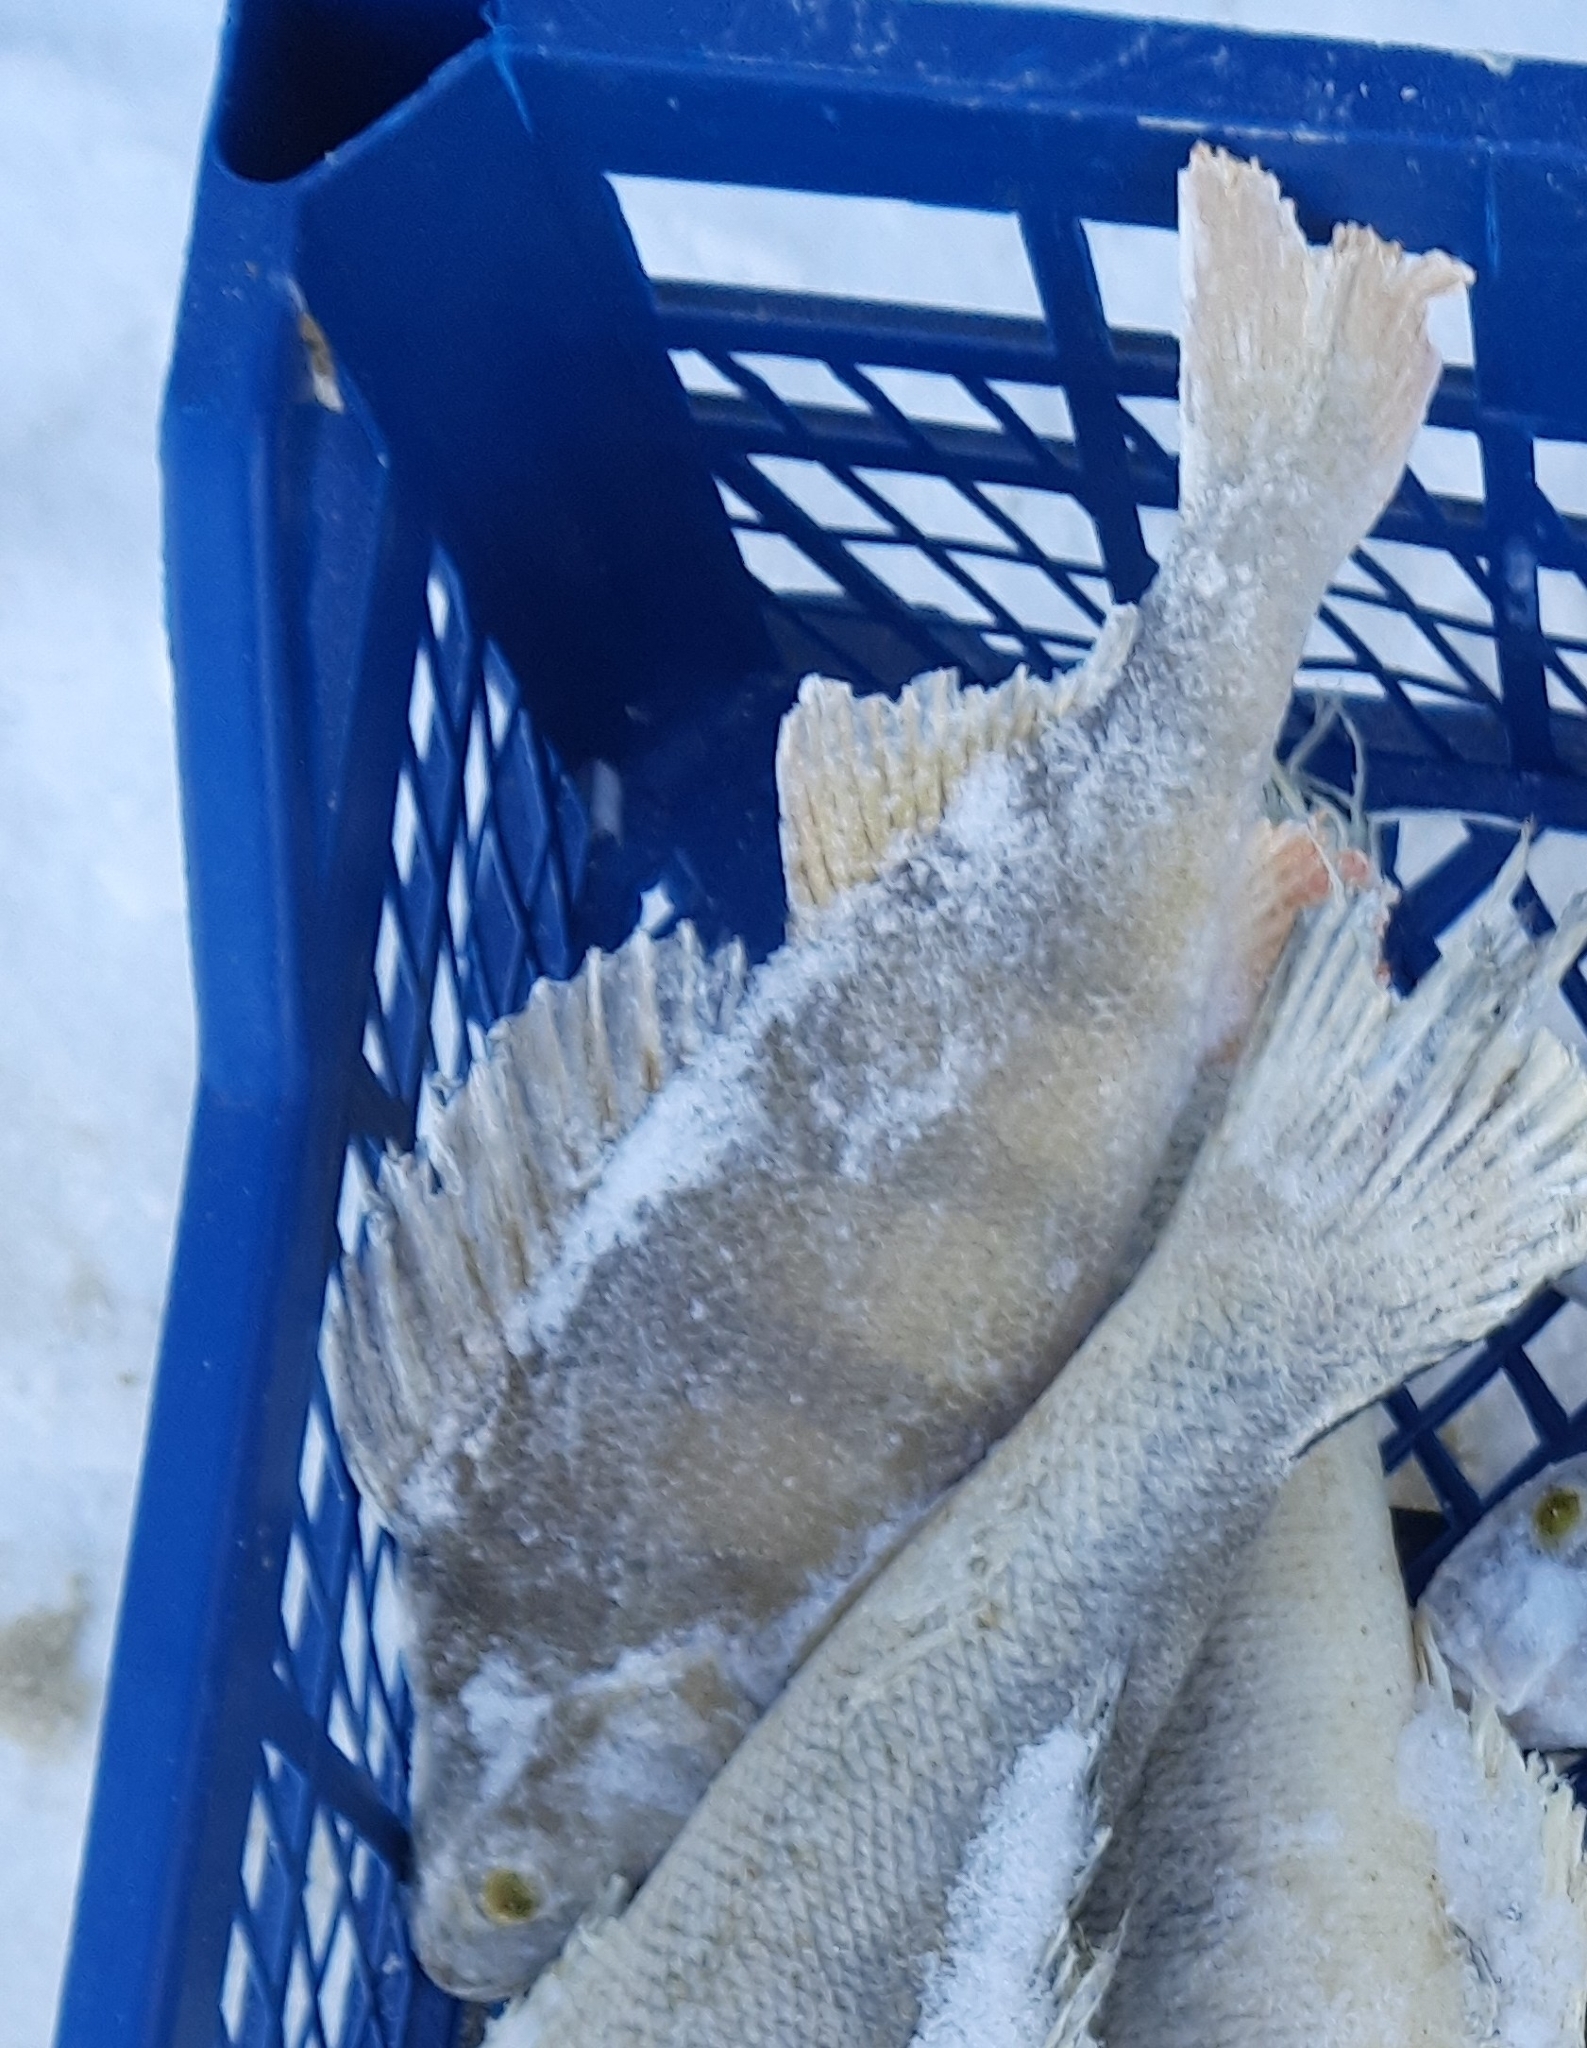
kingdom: Animalia
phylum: Chordata
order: Perciformes
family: Percidae
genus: Perca
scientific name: Perca fluviatilis
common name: Perch
